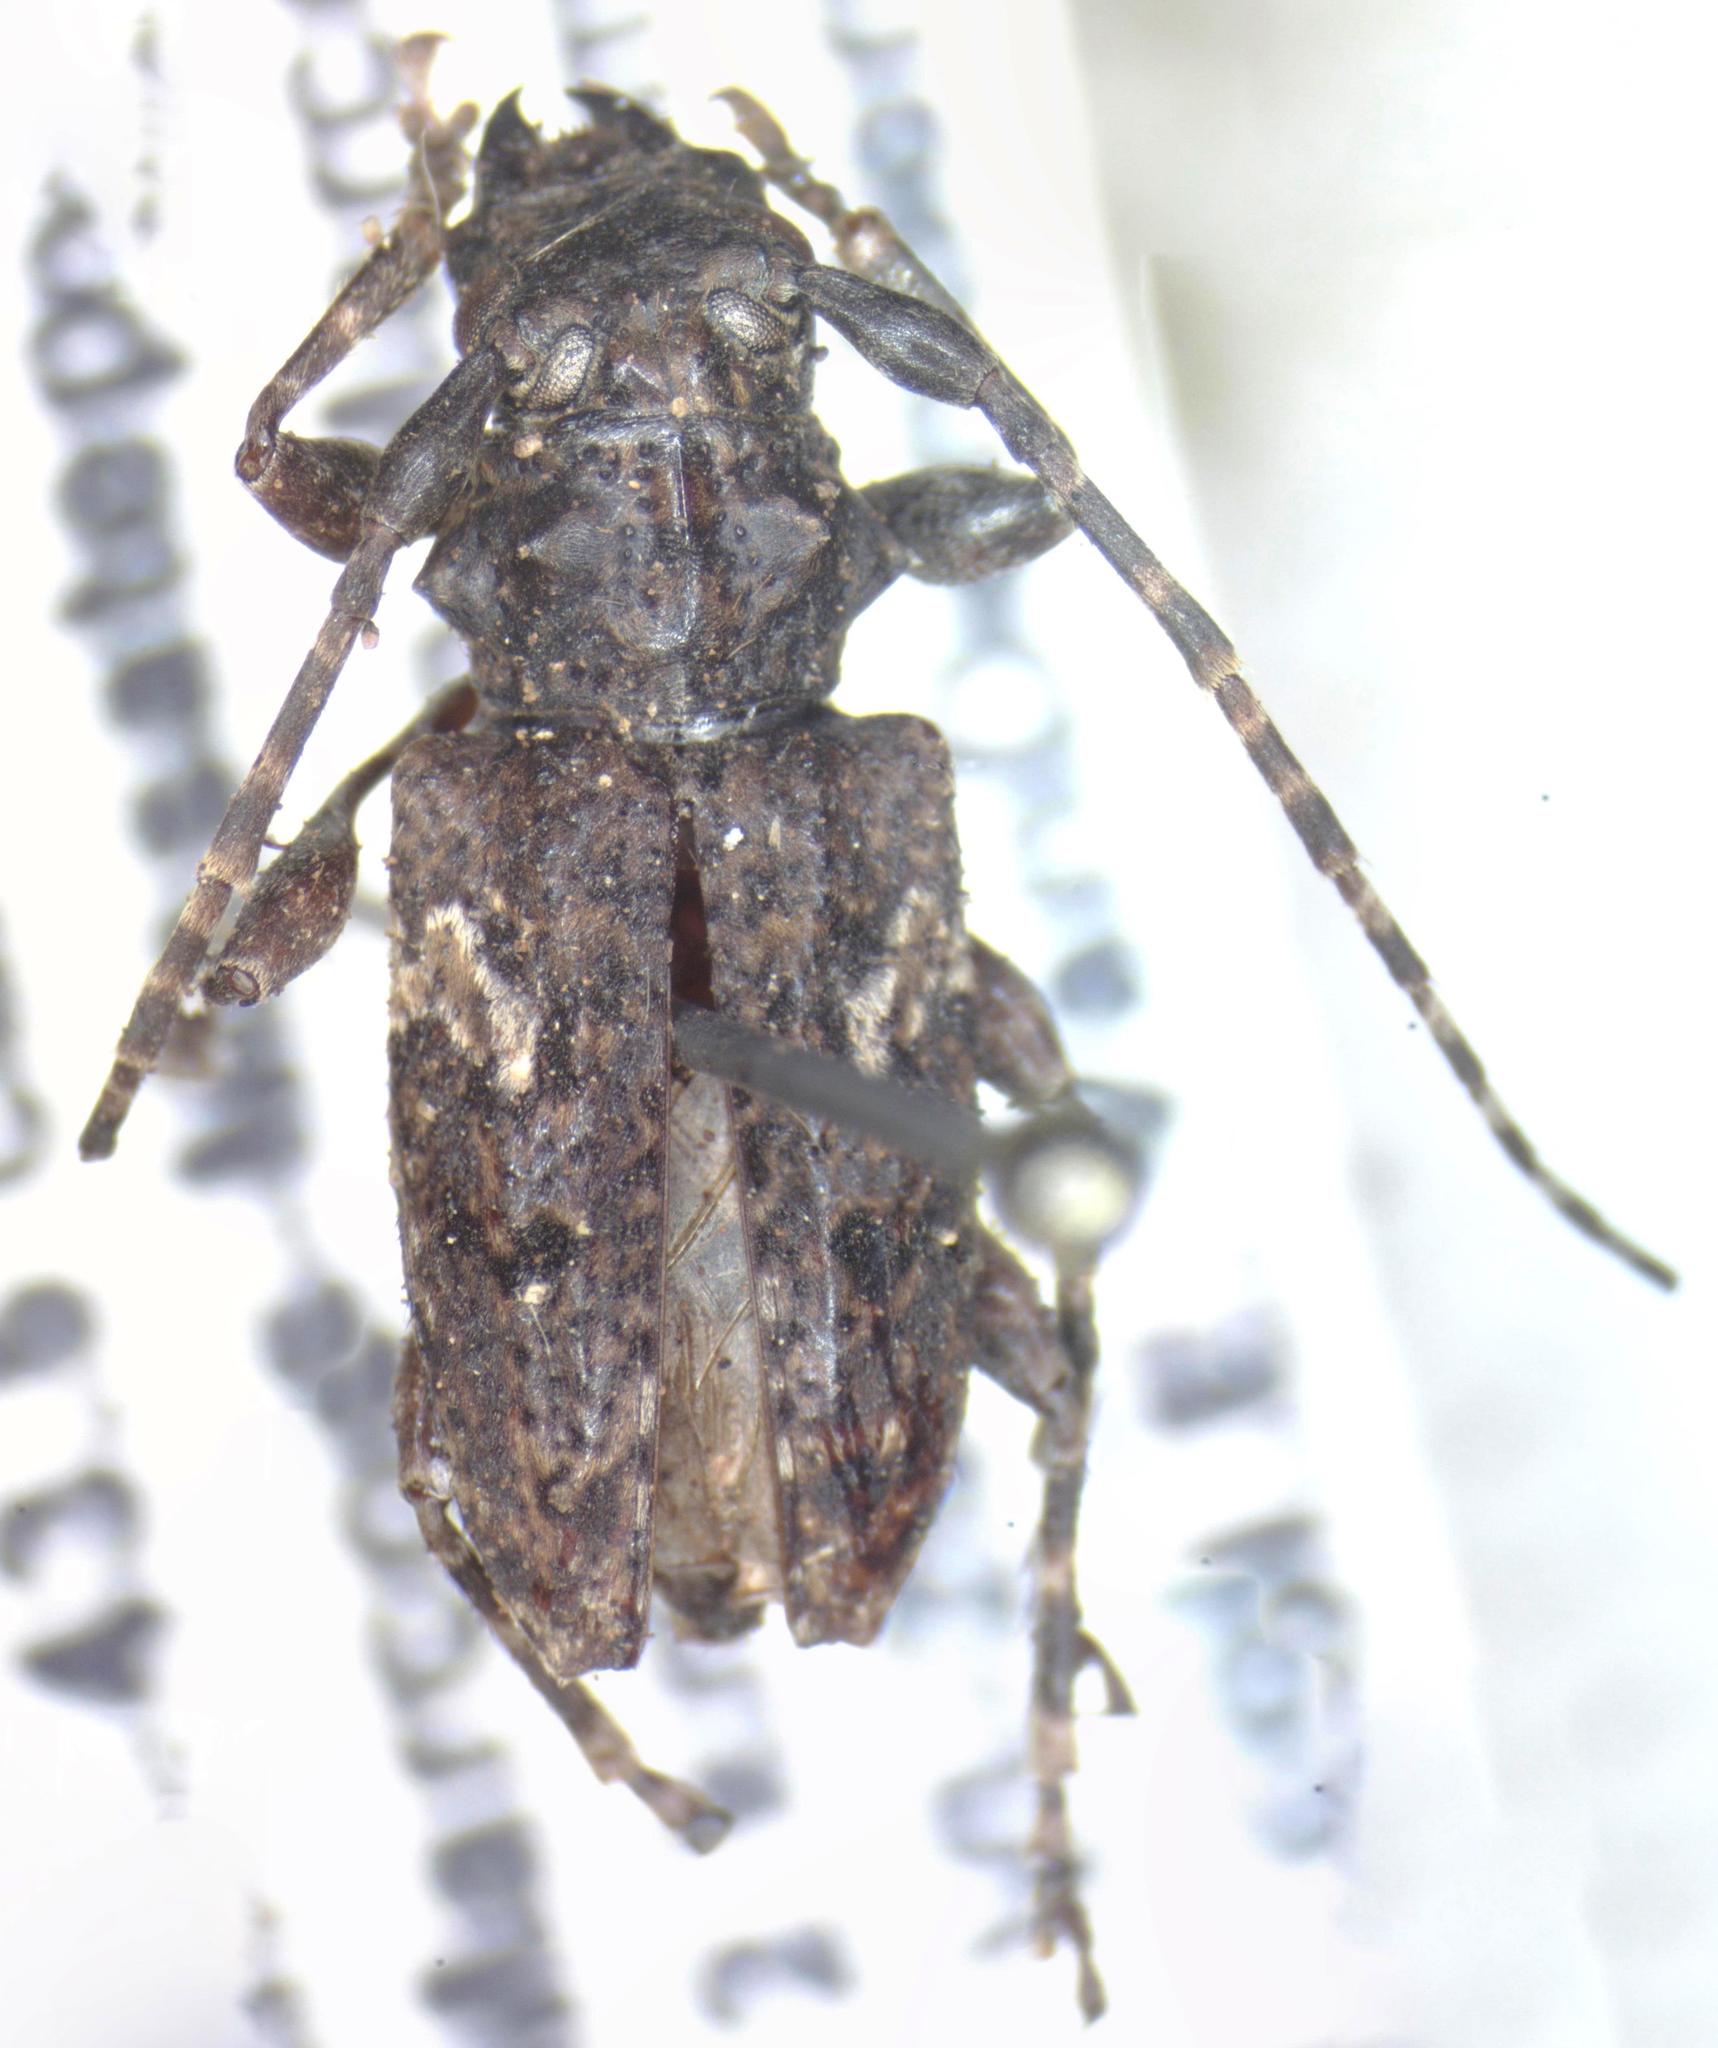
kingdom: Animalia
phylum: Arthropoda
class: Insecta
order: Coleoptera
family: Cerambycidae
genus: Psapharochrus
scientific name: Psapharochrus circumflexus
